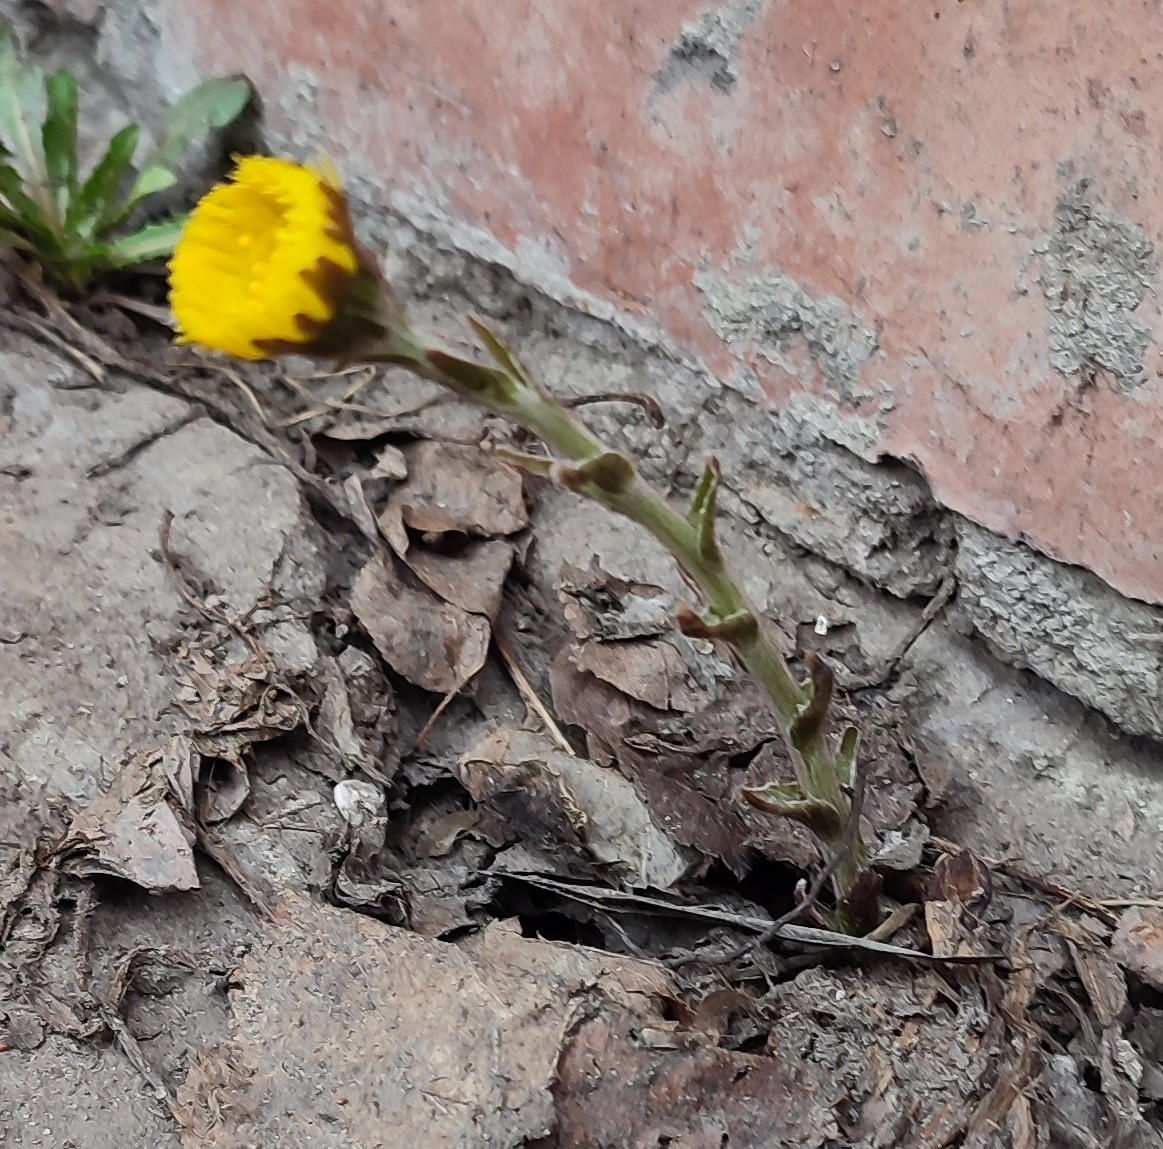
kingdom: Plantae
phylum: Tracheophyta
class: Magnoliopsida
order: Asterales
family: Asteraceae
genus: Tussilago
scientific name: Tussilago farfara
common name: Coltsfoot
